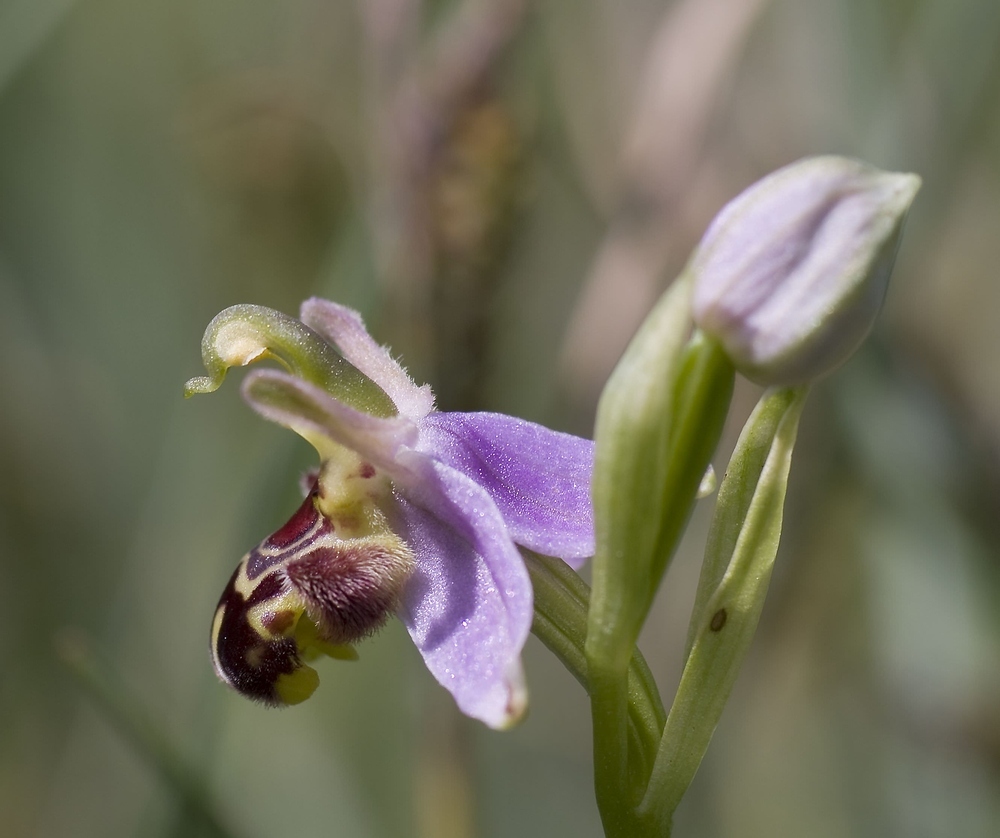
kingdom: Plantae
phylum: Tracheophyta
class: Liliopsida
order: Asparagales
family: Orchidaceae
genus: Ophrys
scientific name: Ophrys apifera
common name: Bee orchid
